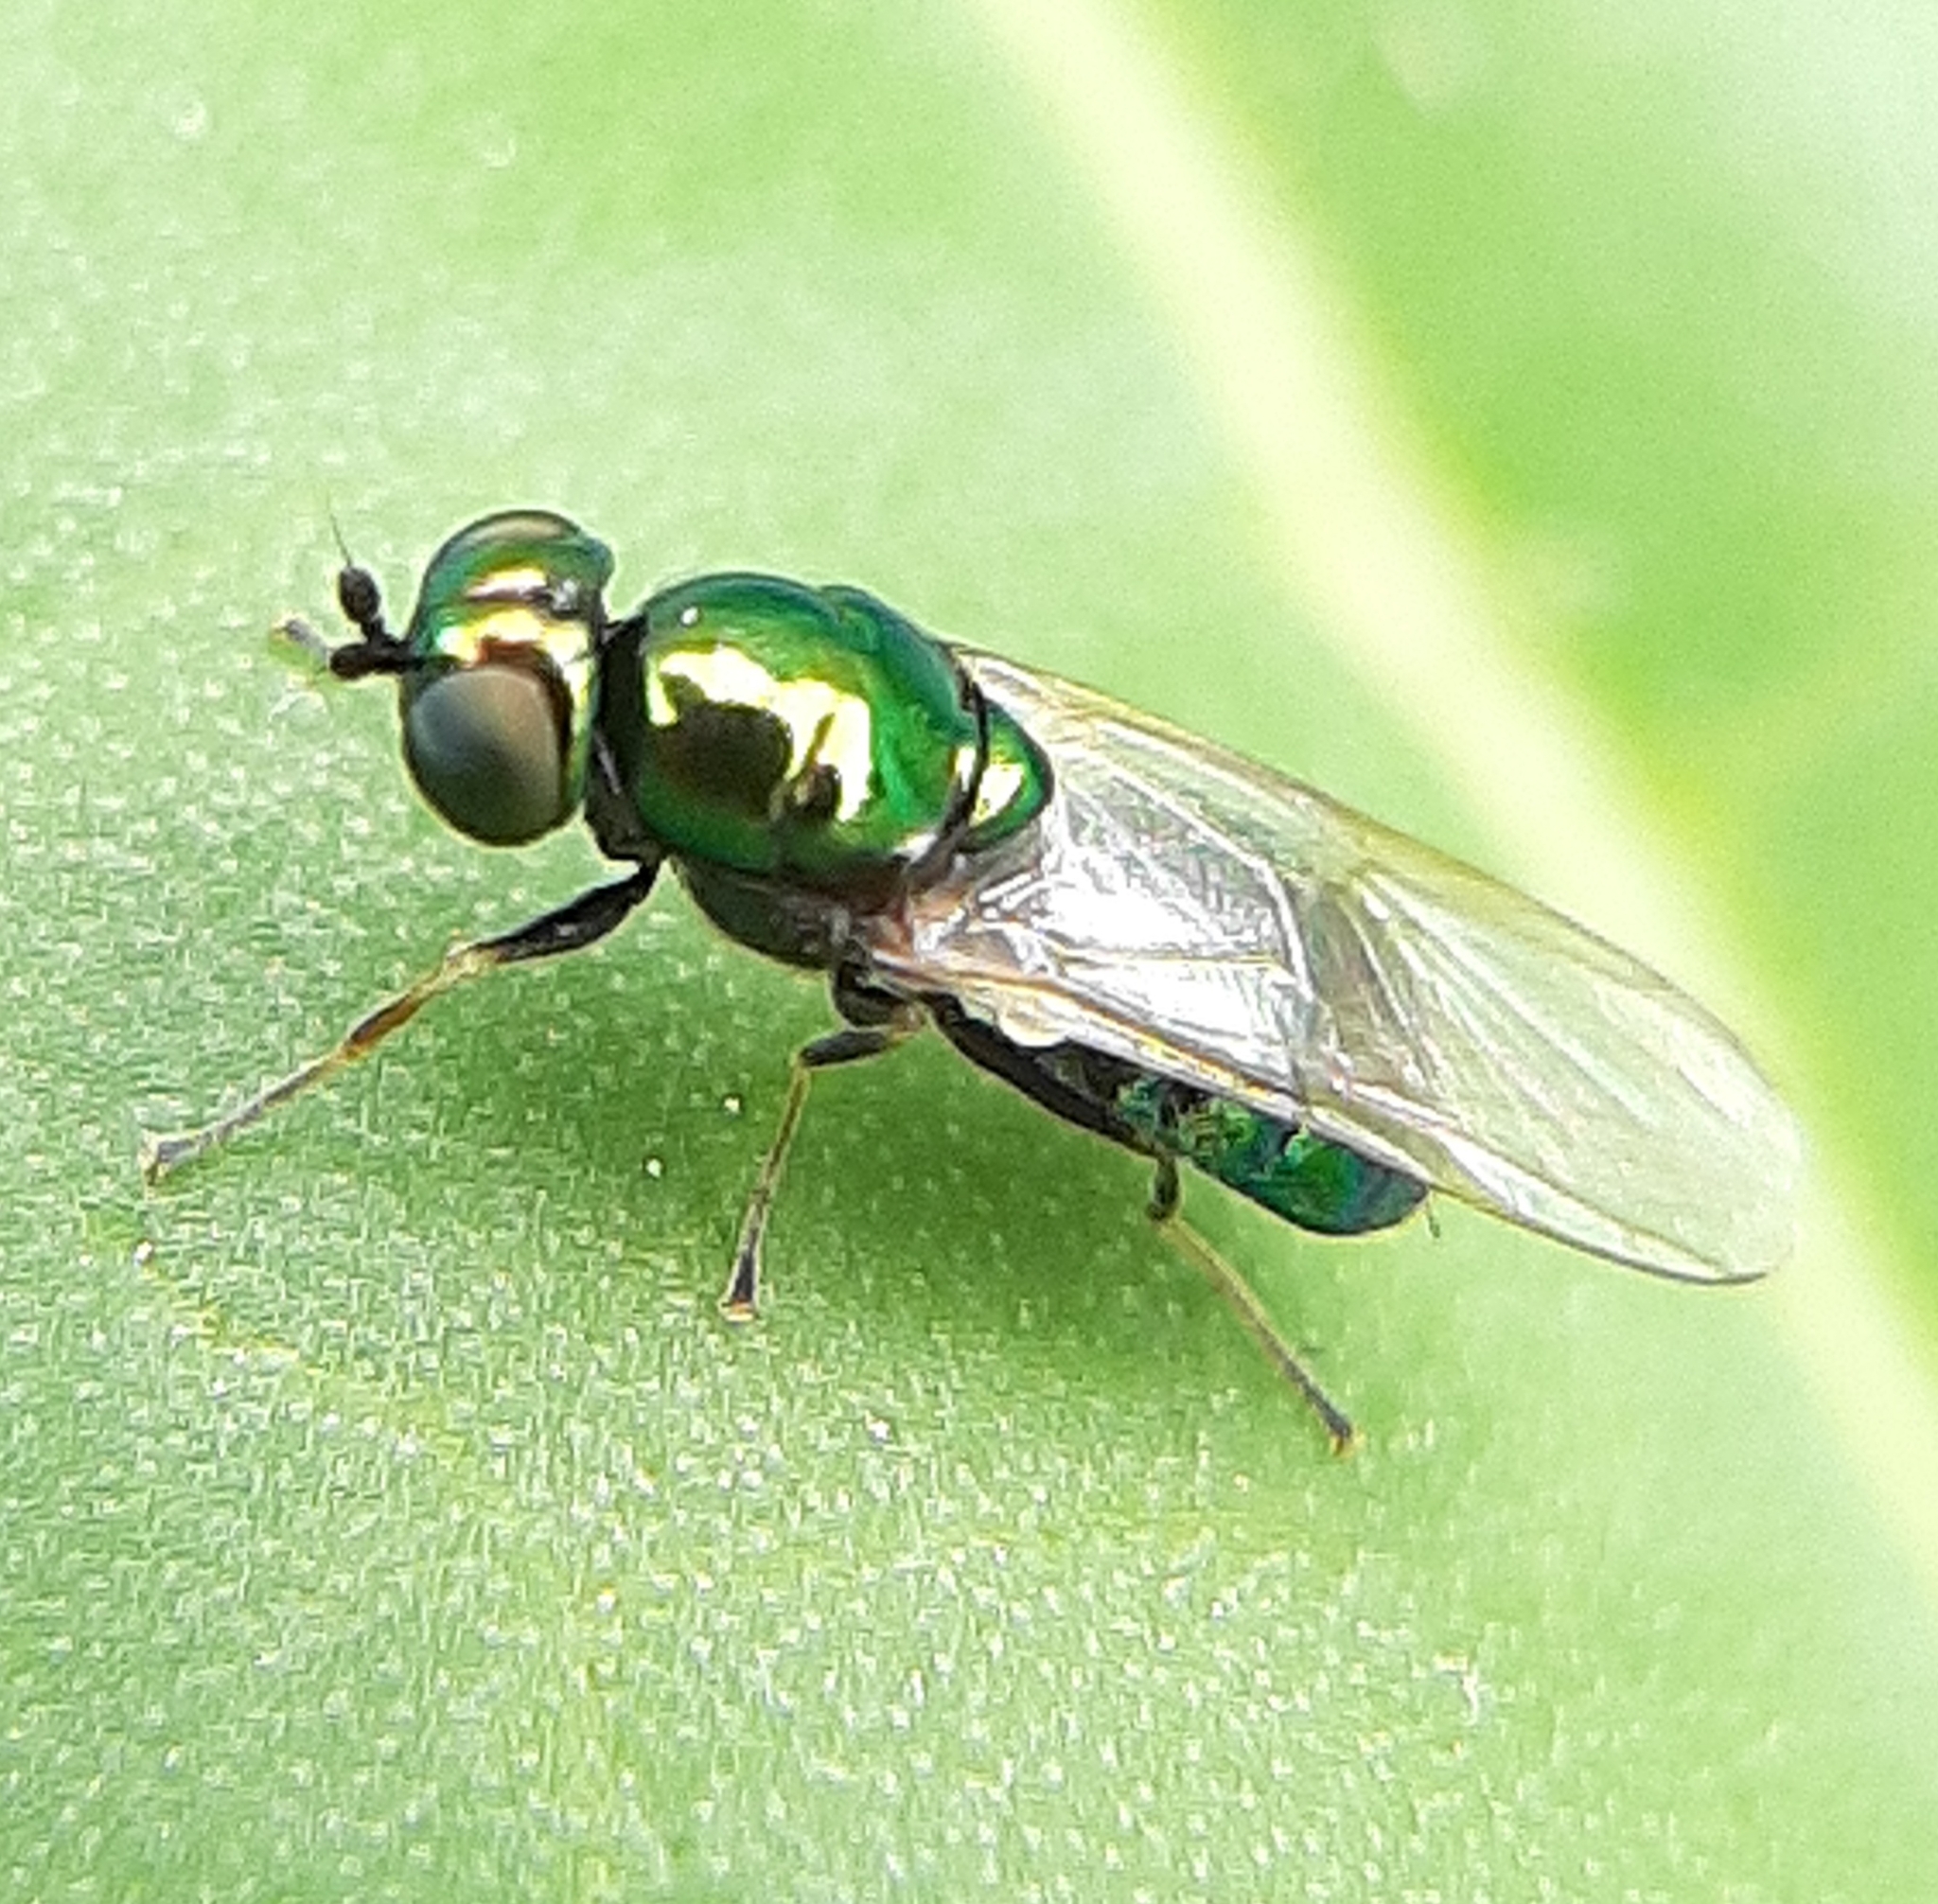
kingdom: Animalia
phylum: Arthropoda
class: Insecta
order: Diptera
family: Stratiomyidae
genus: Microchrysa
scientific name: Microchrysa polita
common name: Black-horned gem
